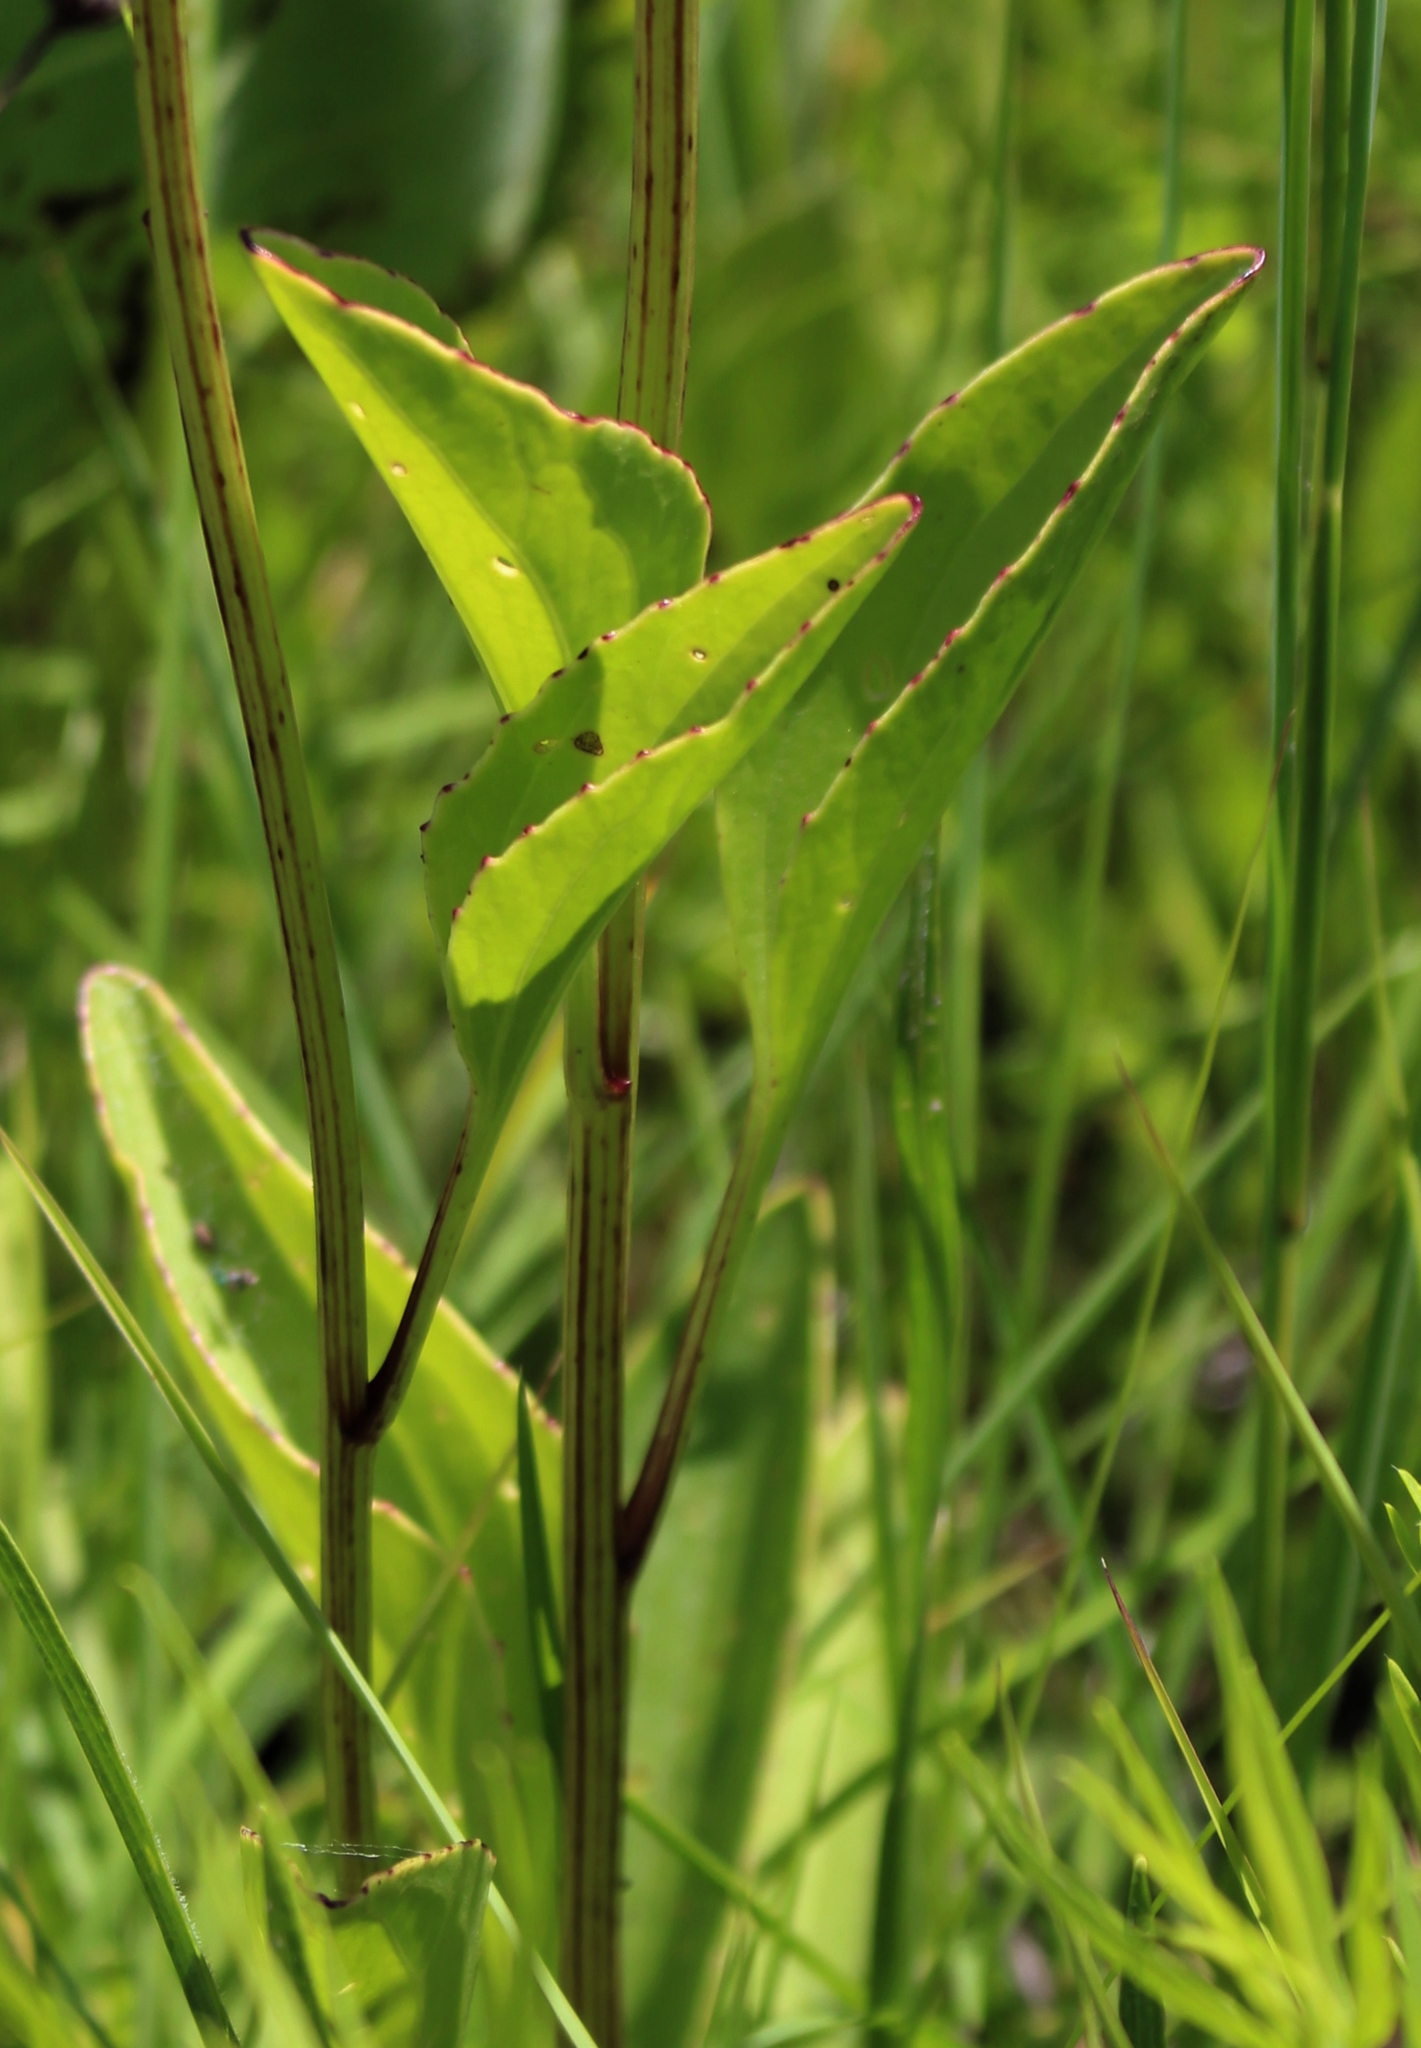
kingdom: Plantae
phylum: Tracheophyta
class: Magnoliopsida
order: Asterales
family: Asteraceae
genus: Arnoglossum
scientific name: Arnoglossum plantagineum
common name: Groove-stemmed indian-plantain
